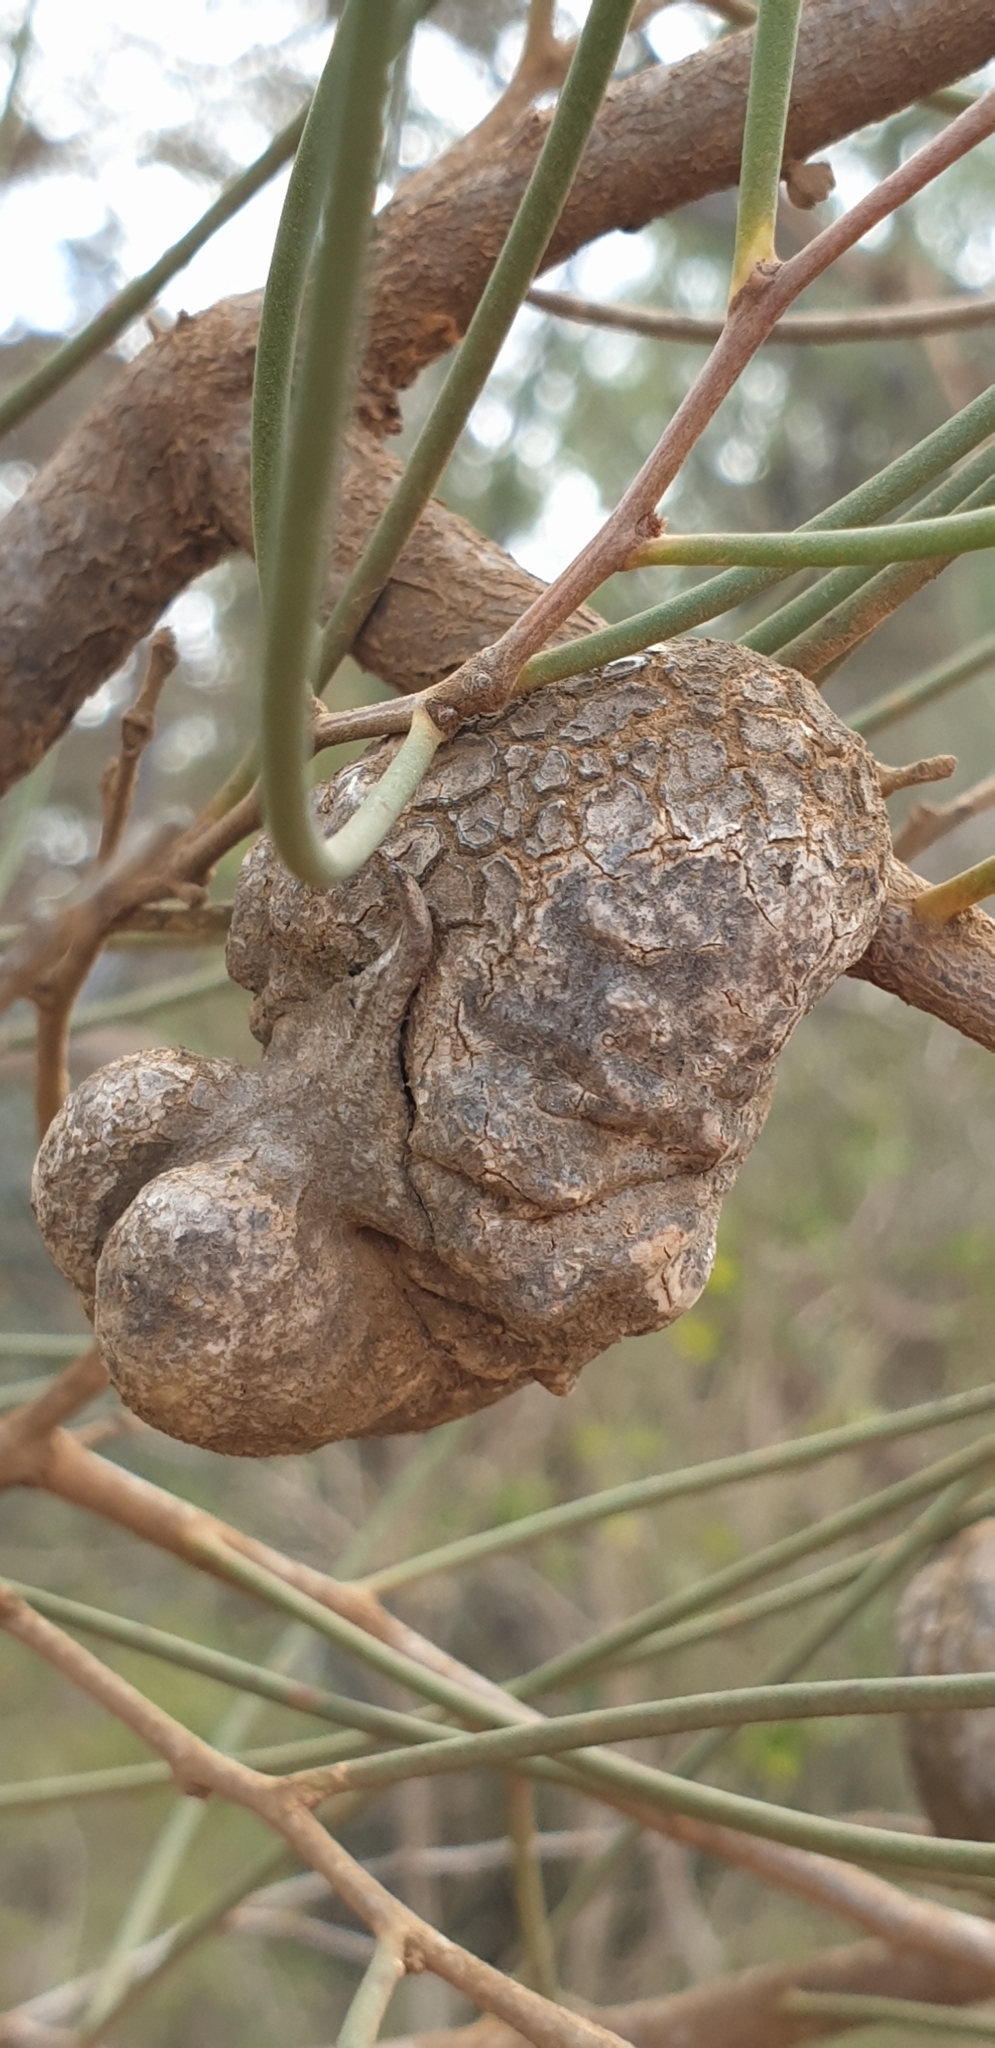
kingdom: Plantae
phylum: Tracheophyta
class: Magnoliopsida
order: Proteales
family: Proteaceae
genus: Hakea
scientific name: Hakea rostrata
